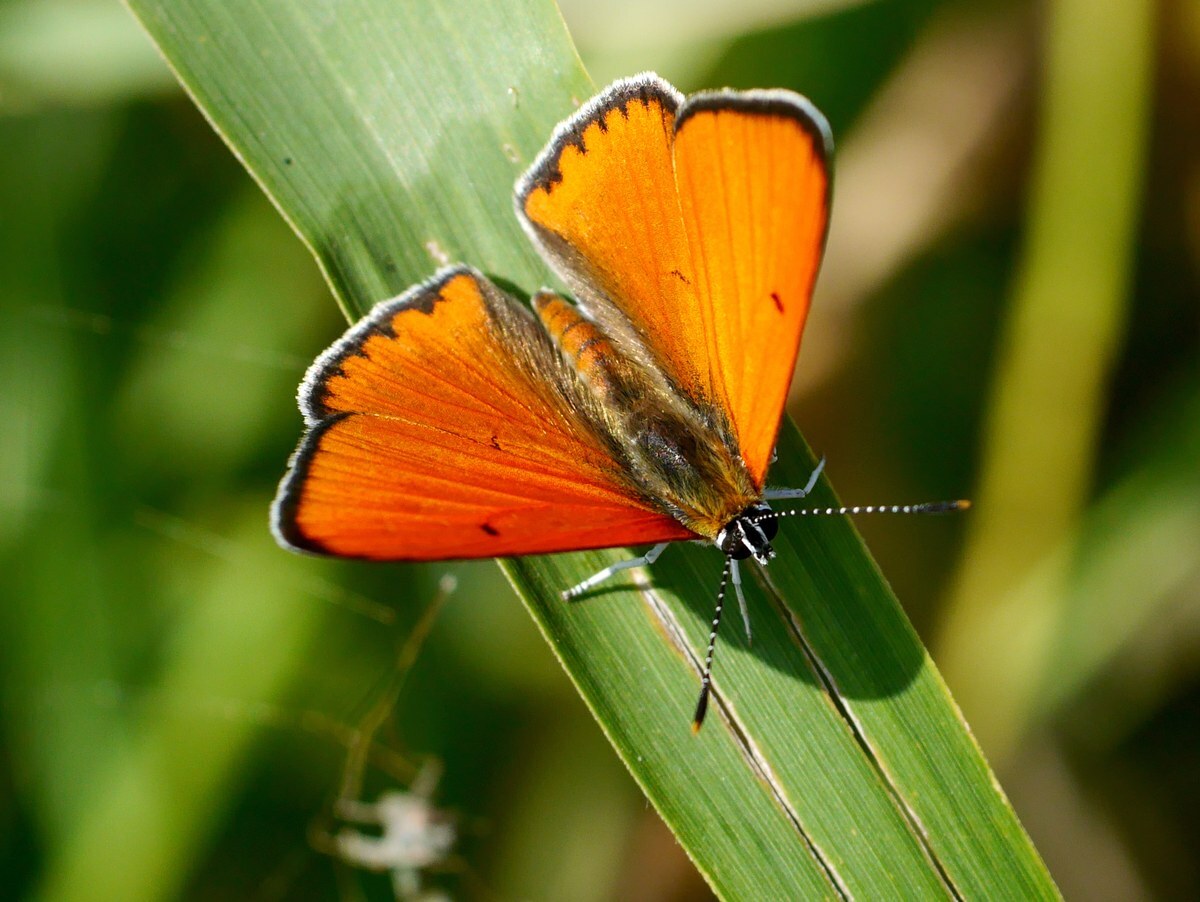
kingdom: Animalia
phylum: Arthropoda
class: Insecta
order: Lepidoptera
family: Lycaenidae
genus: Lycaena
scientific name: Lycaena dispar
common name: Large copper
